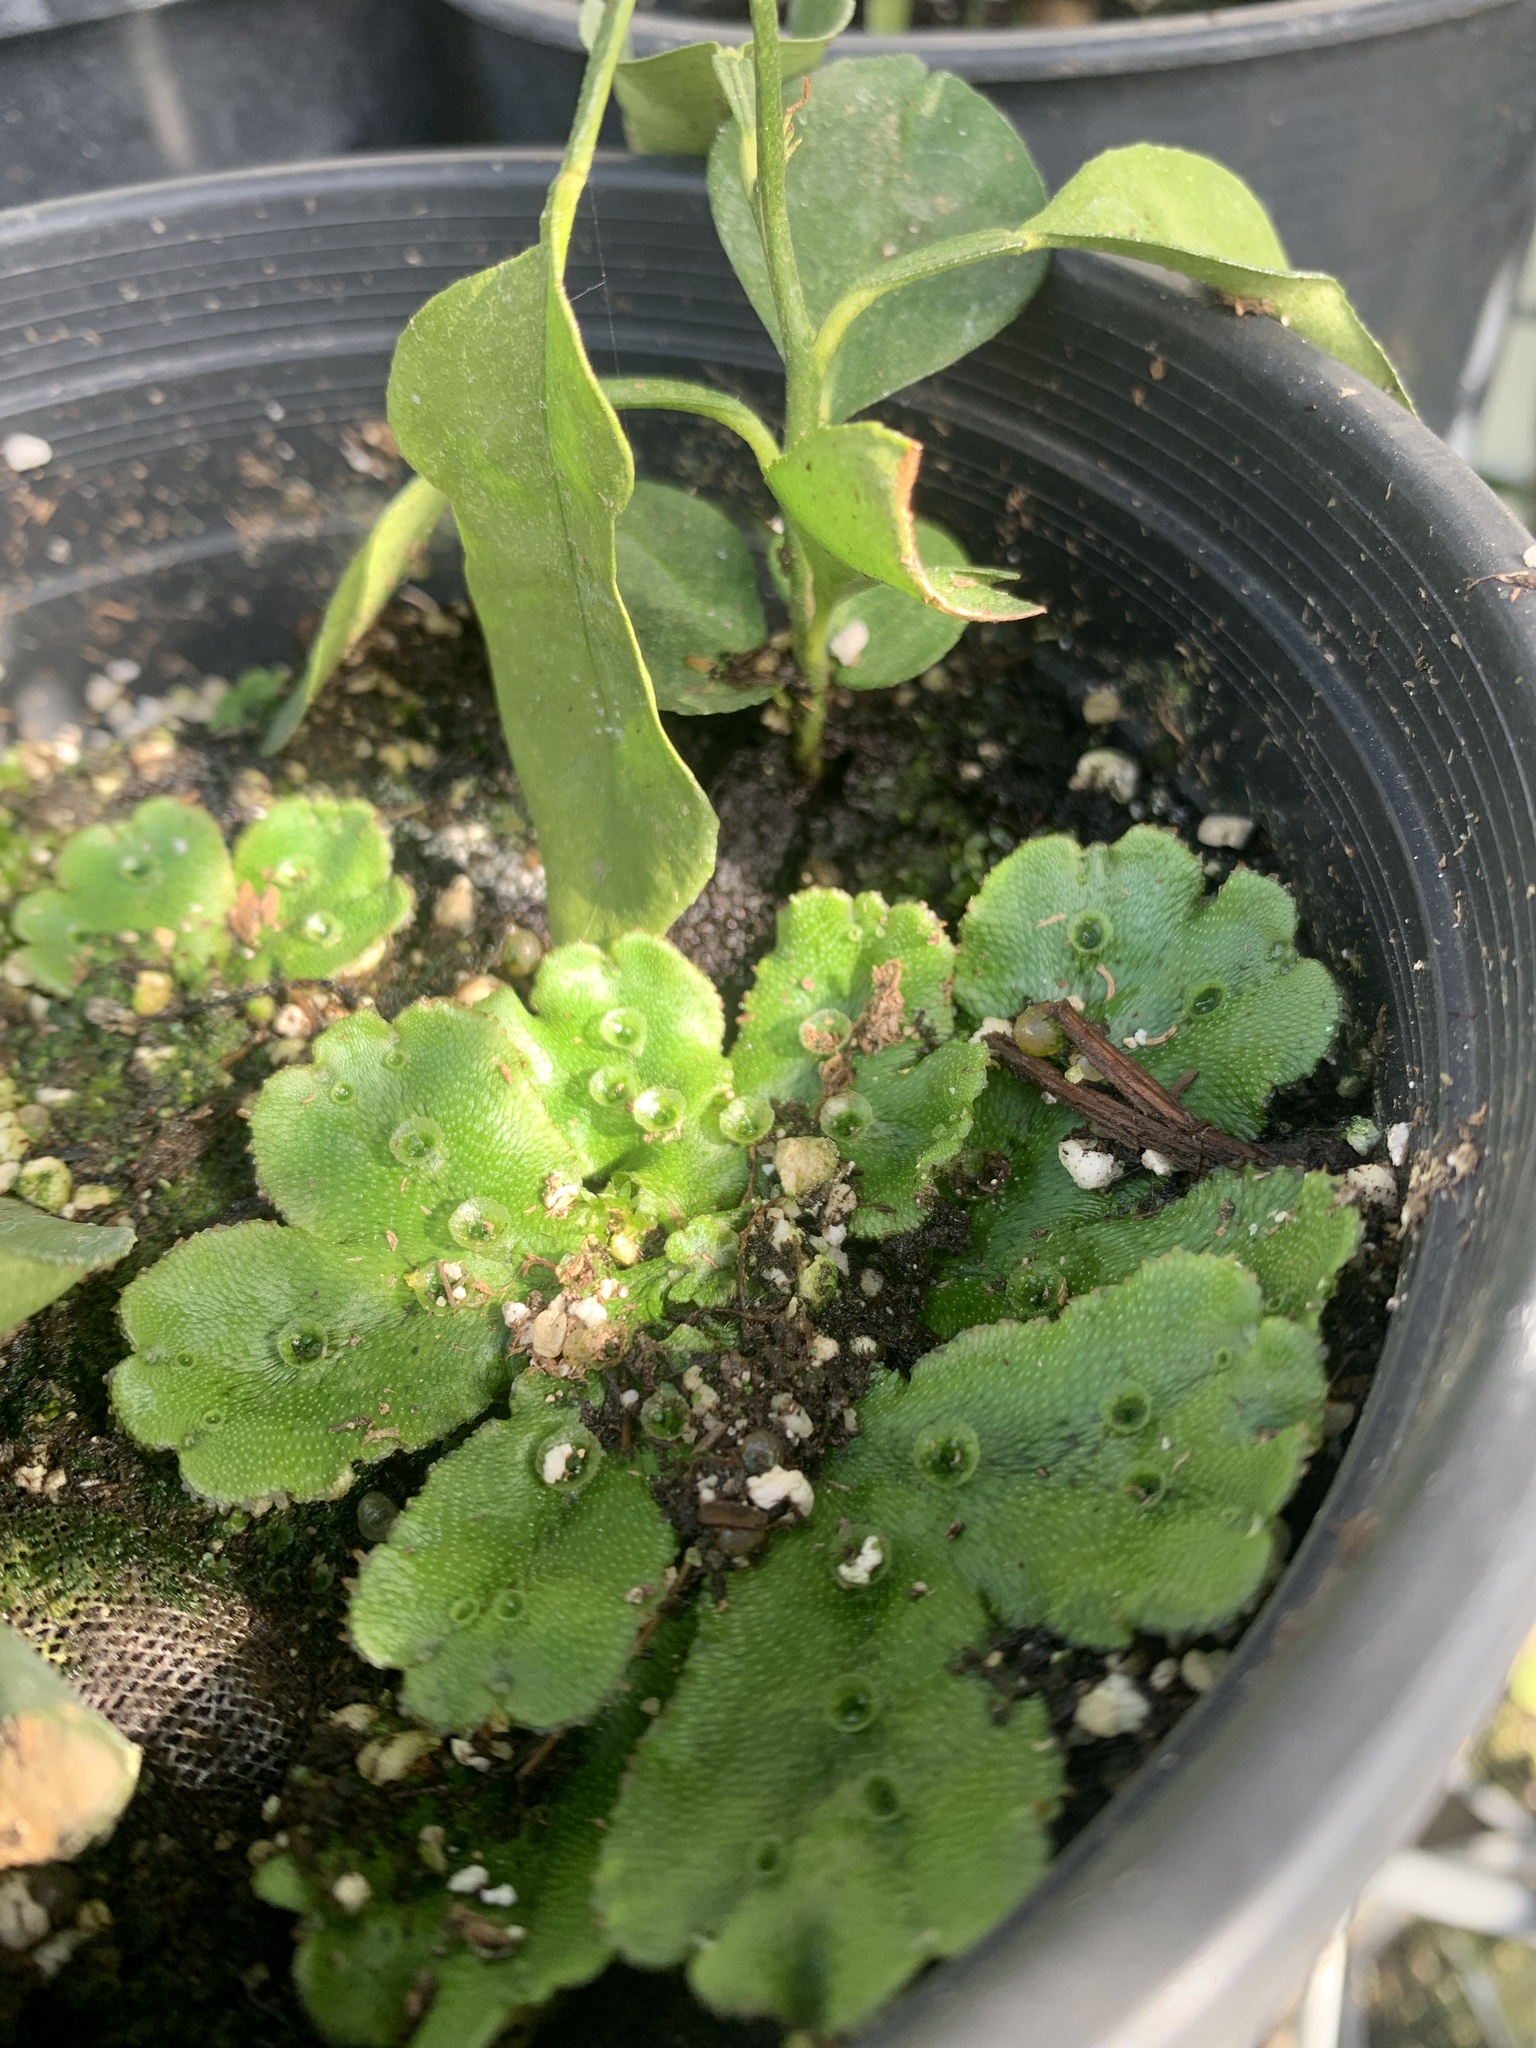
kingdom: Plantae
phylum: Marchantiophyta
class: Marchantiopsida
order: Marchantiales
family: Marchantiaceae
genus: Marchantia
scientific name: Marchantia polymorpha
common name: Common liverwort
